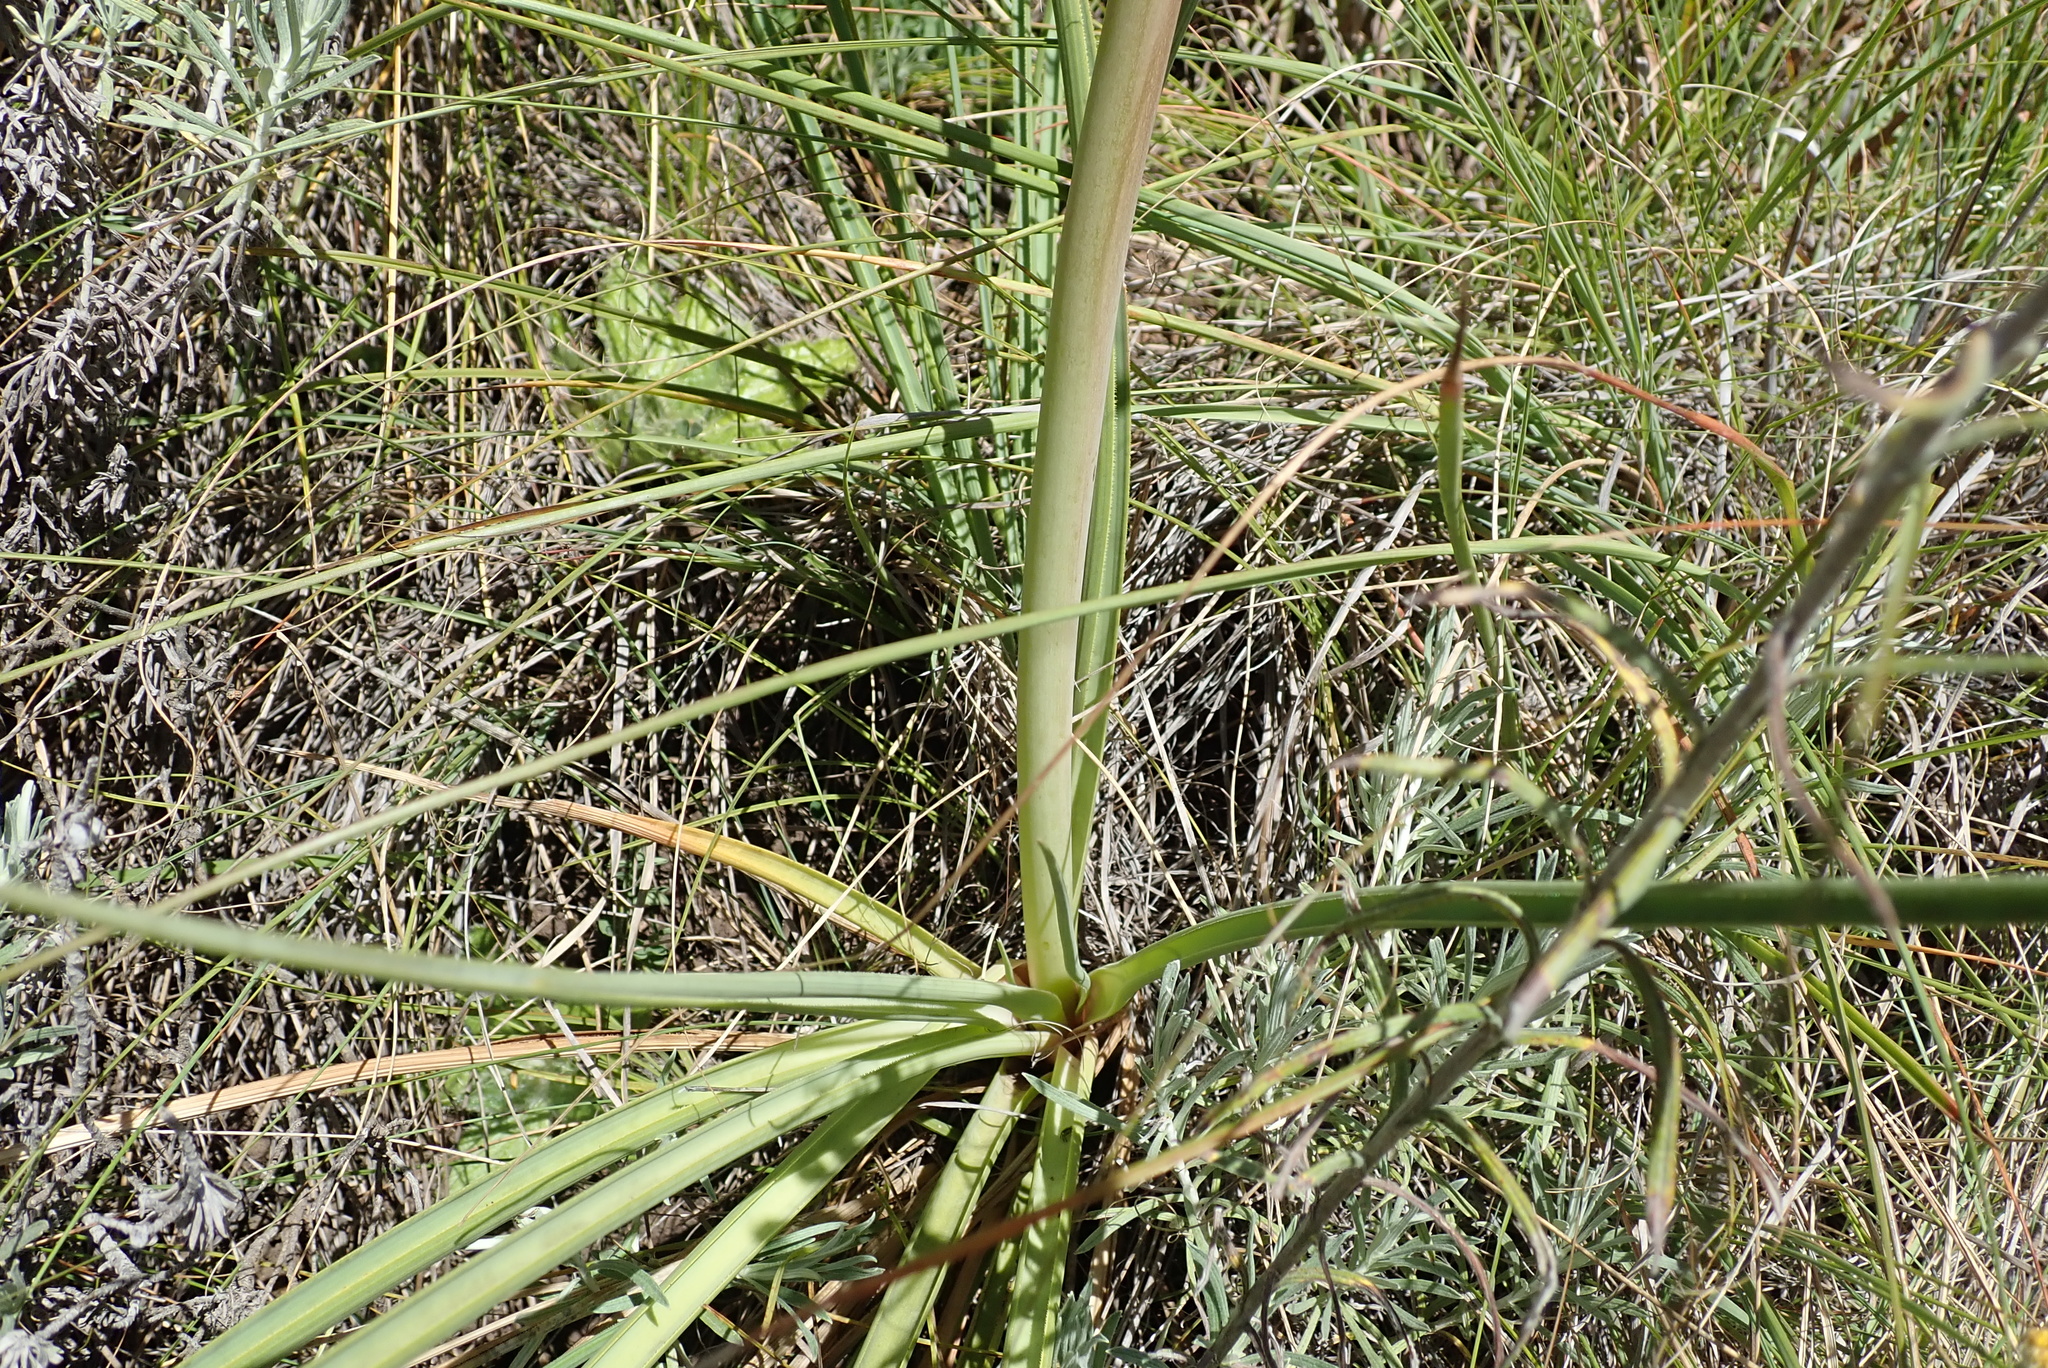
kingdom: Plantae
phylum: Tracheophyta
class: Liliopsida
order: Asparagales
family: Asphodelaceae
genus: Kniphofia
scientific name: Kniphofia stricta
